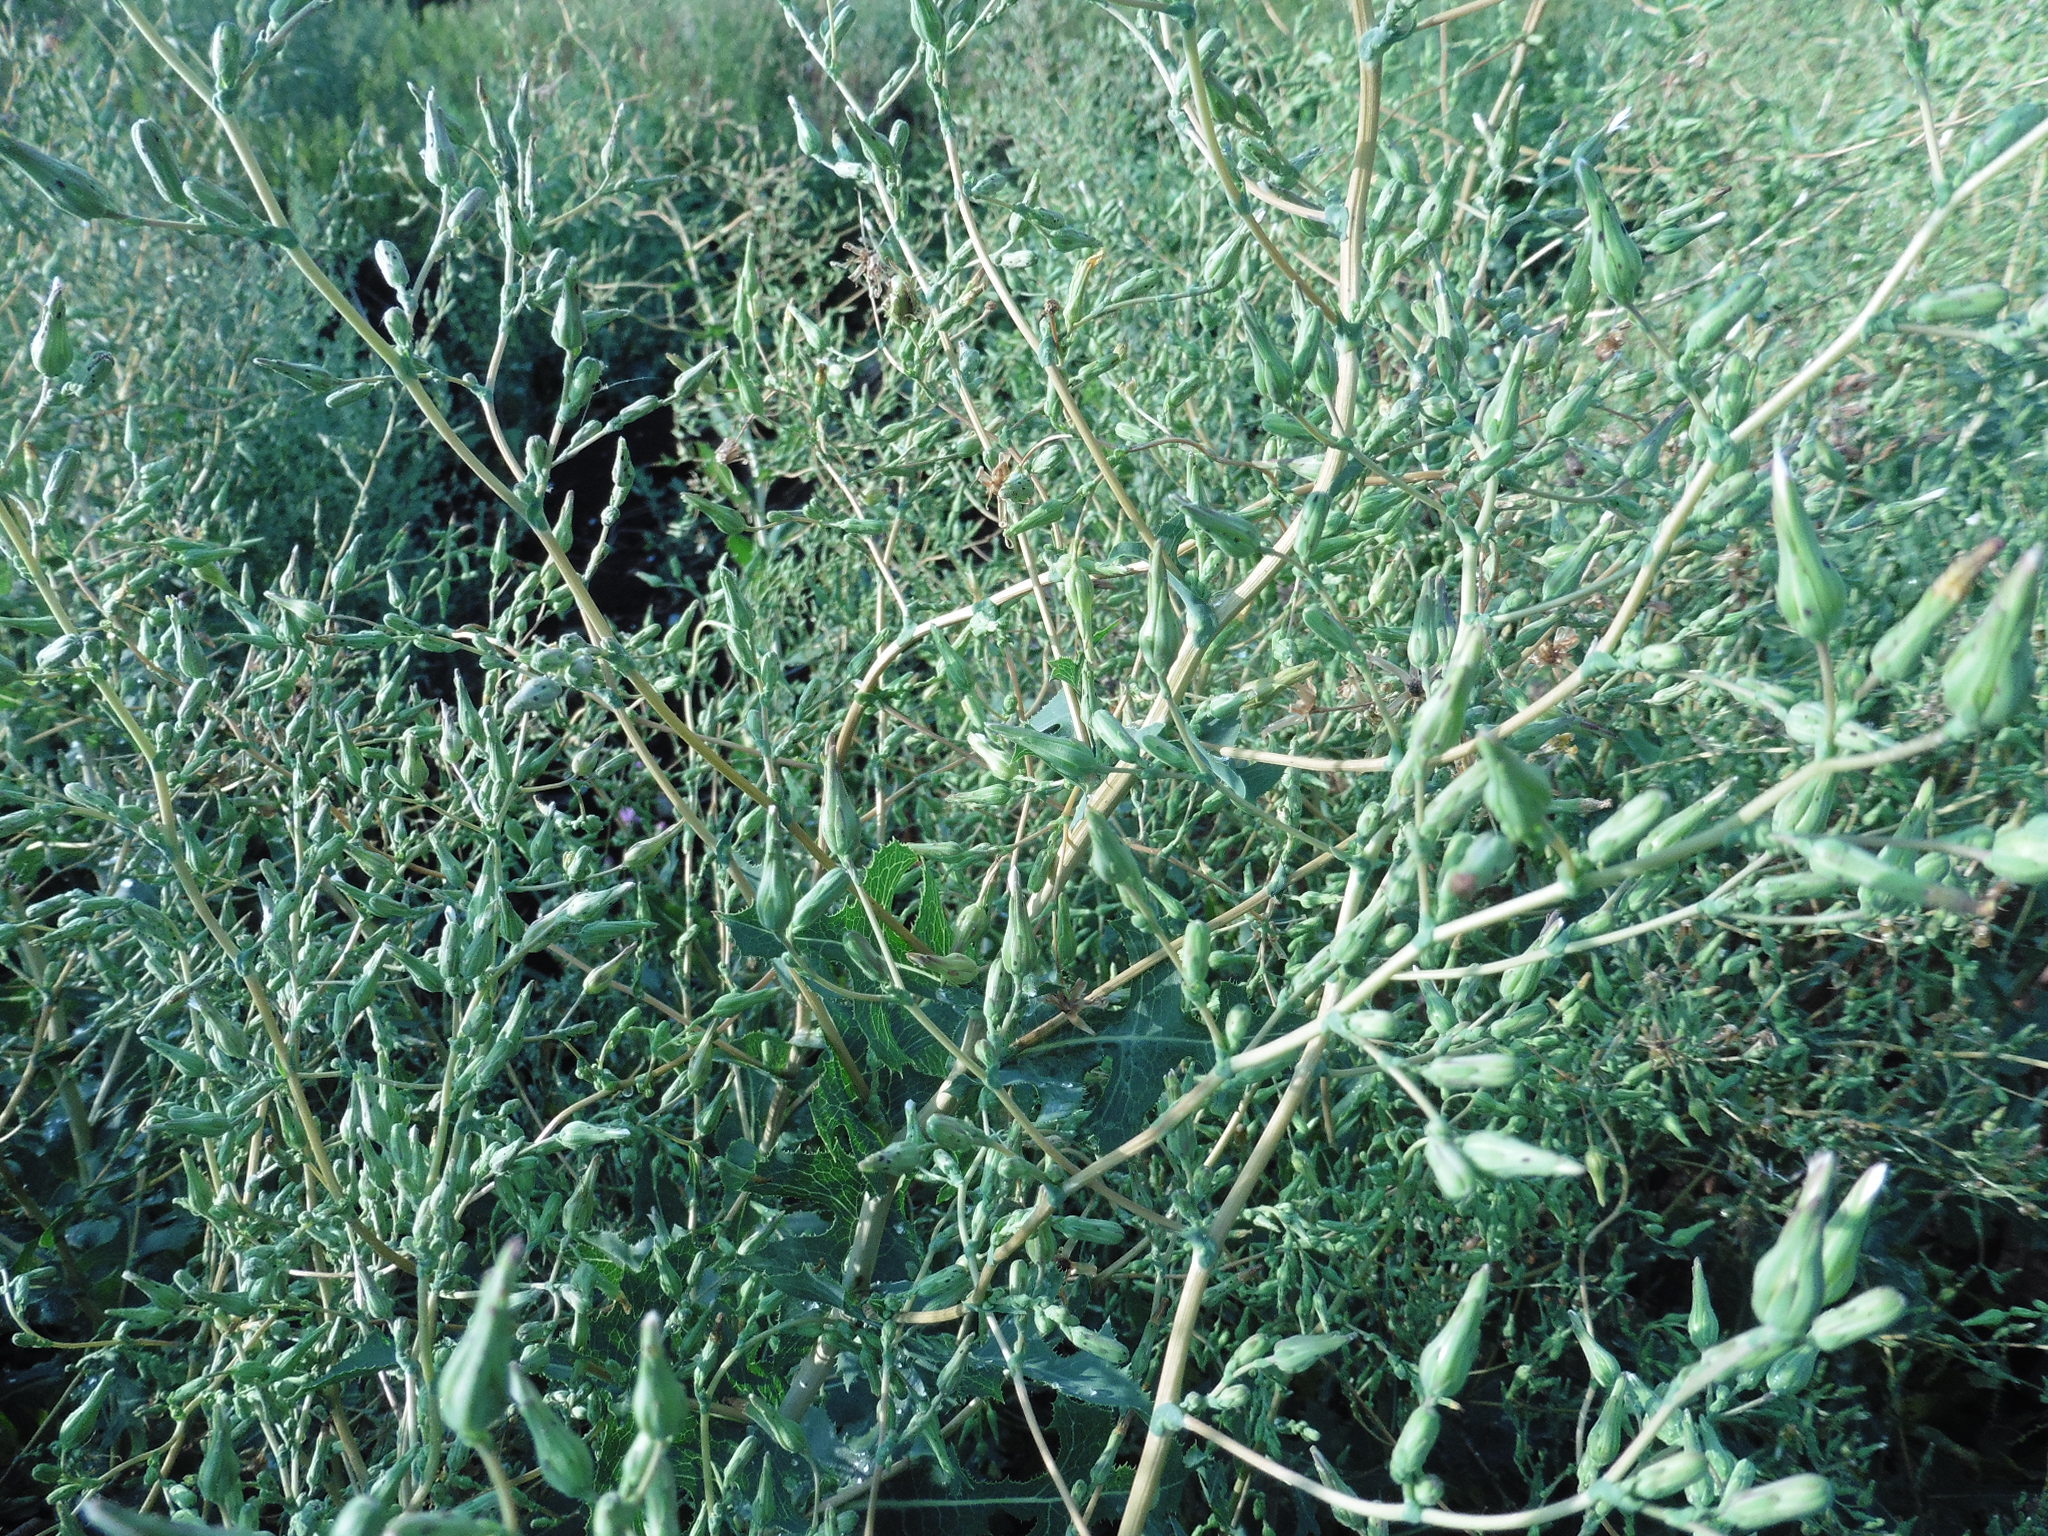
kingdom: Plantae
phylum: Tracheophyta
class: Magnoliopsida
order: Asterales
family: Asteraceae
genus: Lactuca
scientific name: Lactuca serriola
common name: Prickly lettuce
